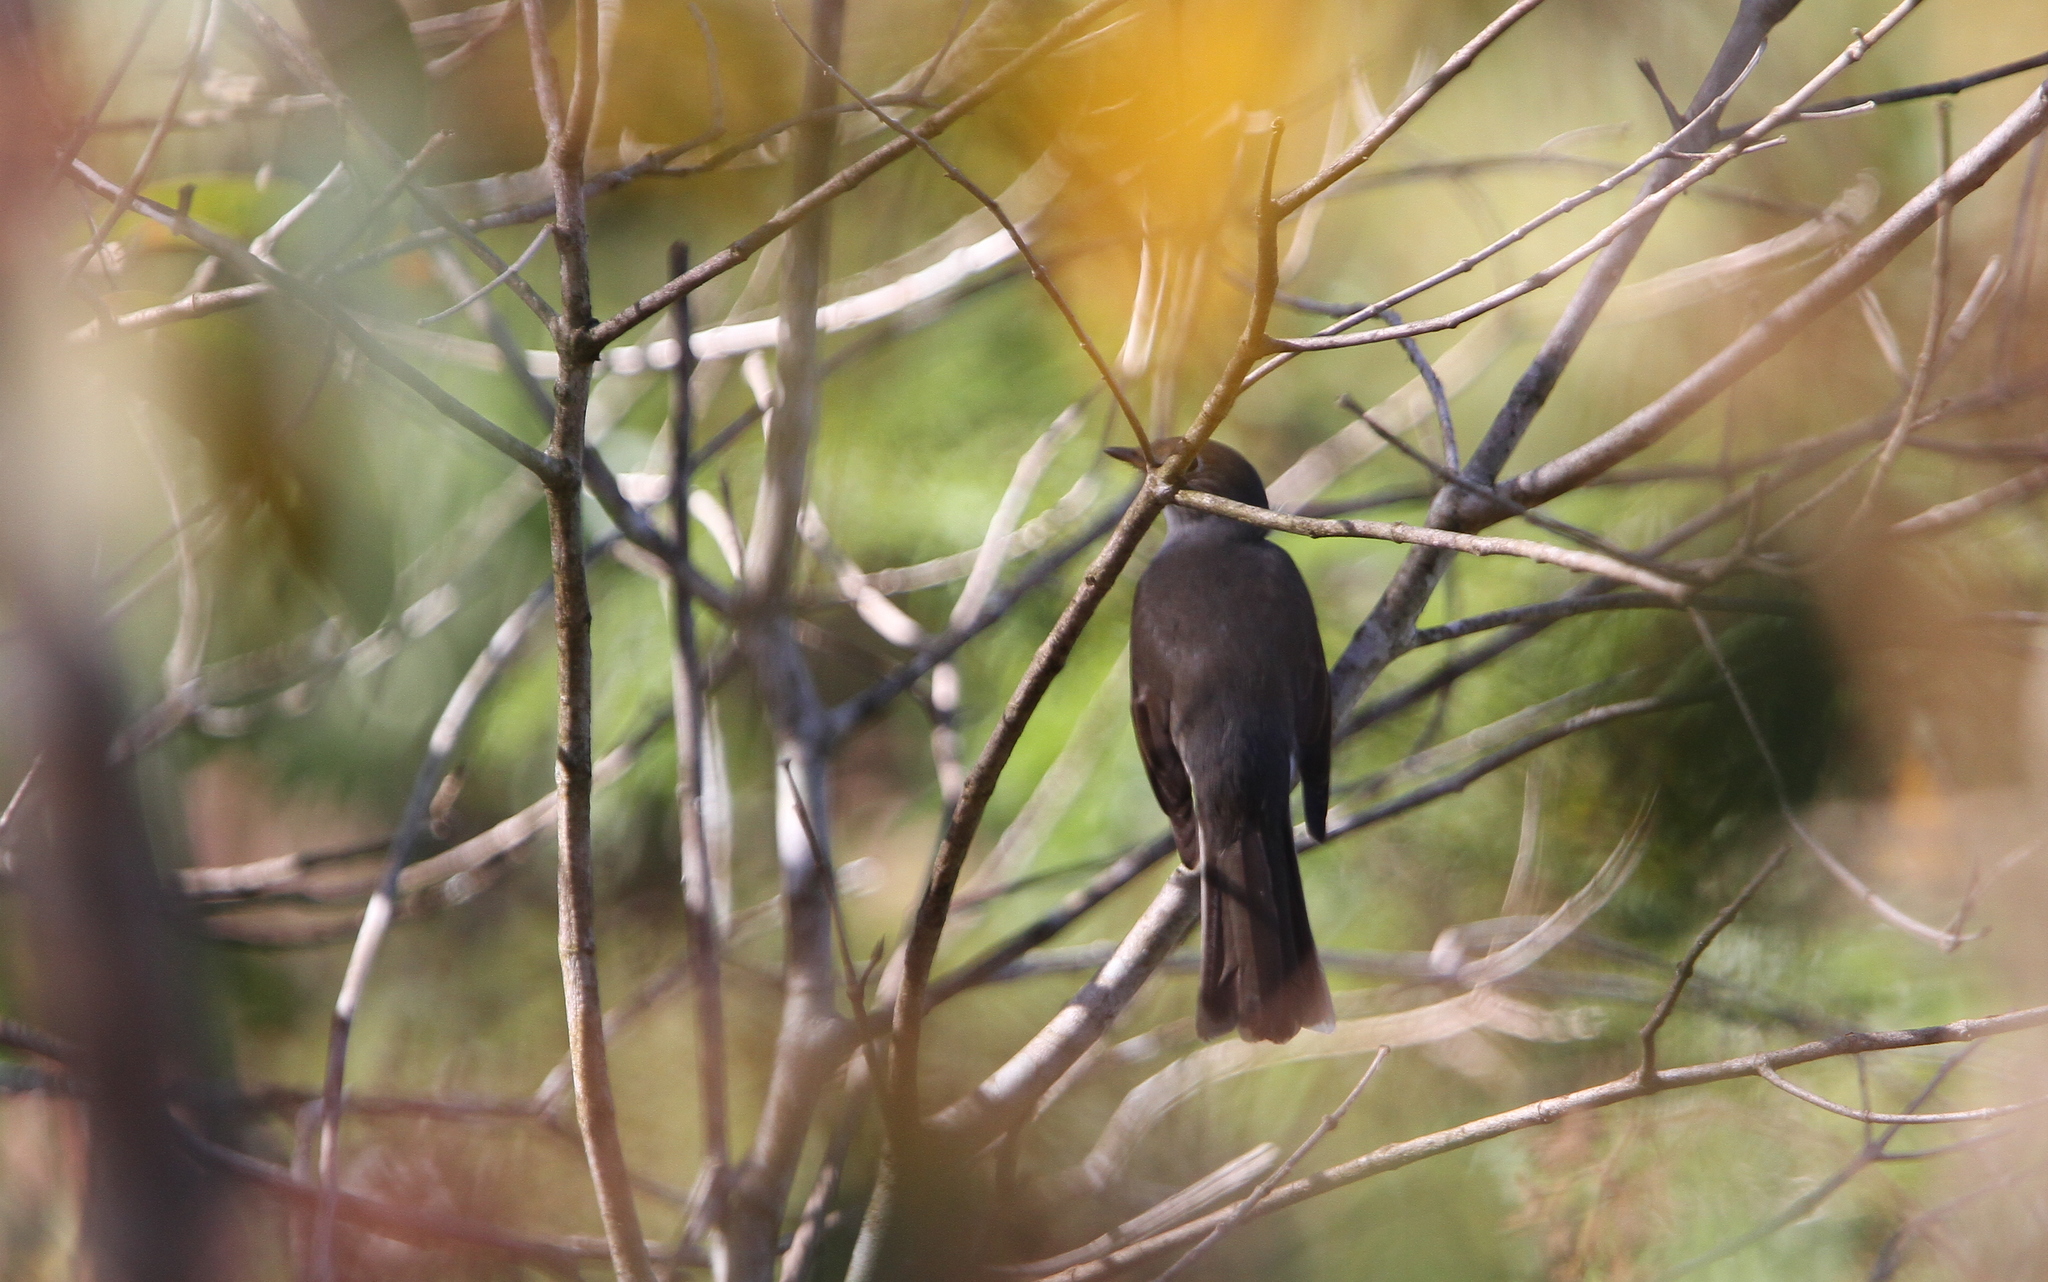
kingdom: Animalia
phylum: Chordata
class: Aves
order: Passeriformes
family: Turdidae
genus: Myadestes
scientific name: Myadestes elisabeth
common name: Cuban solitaire
